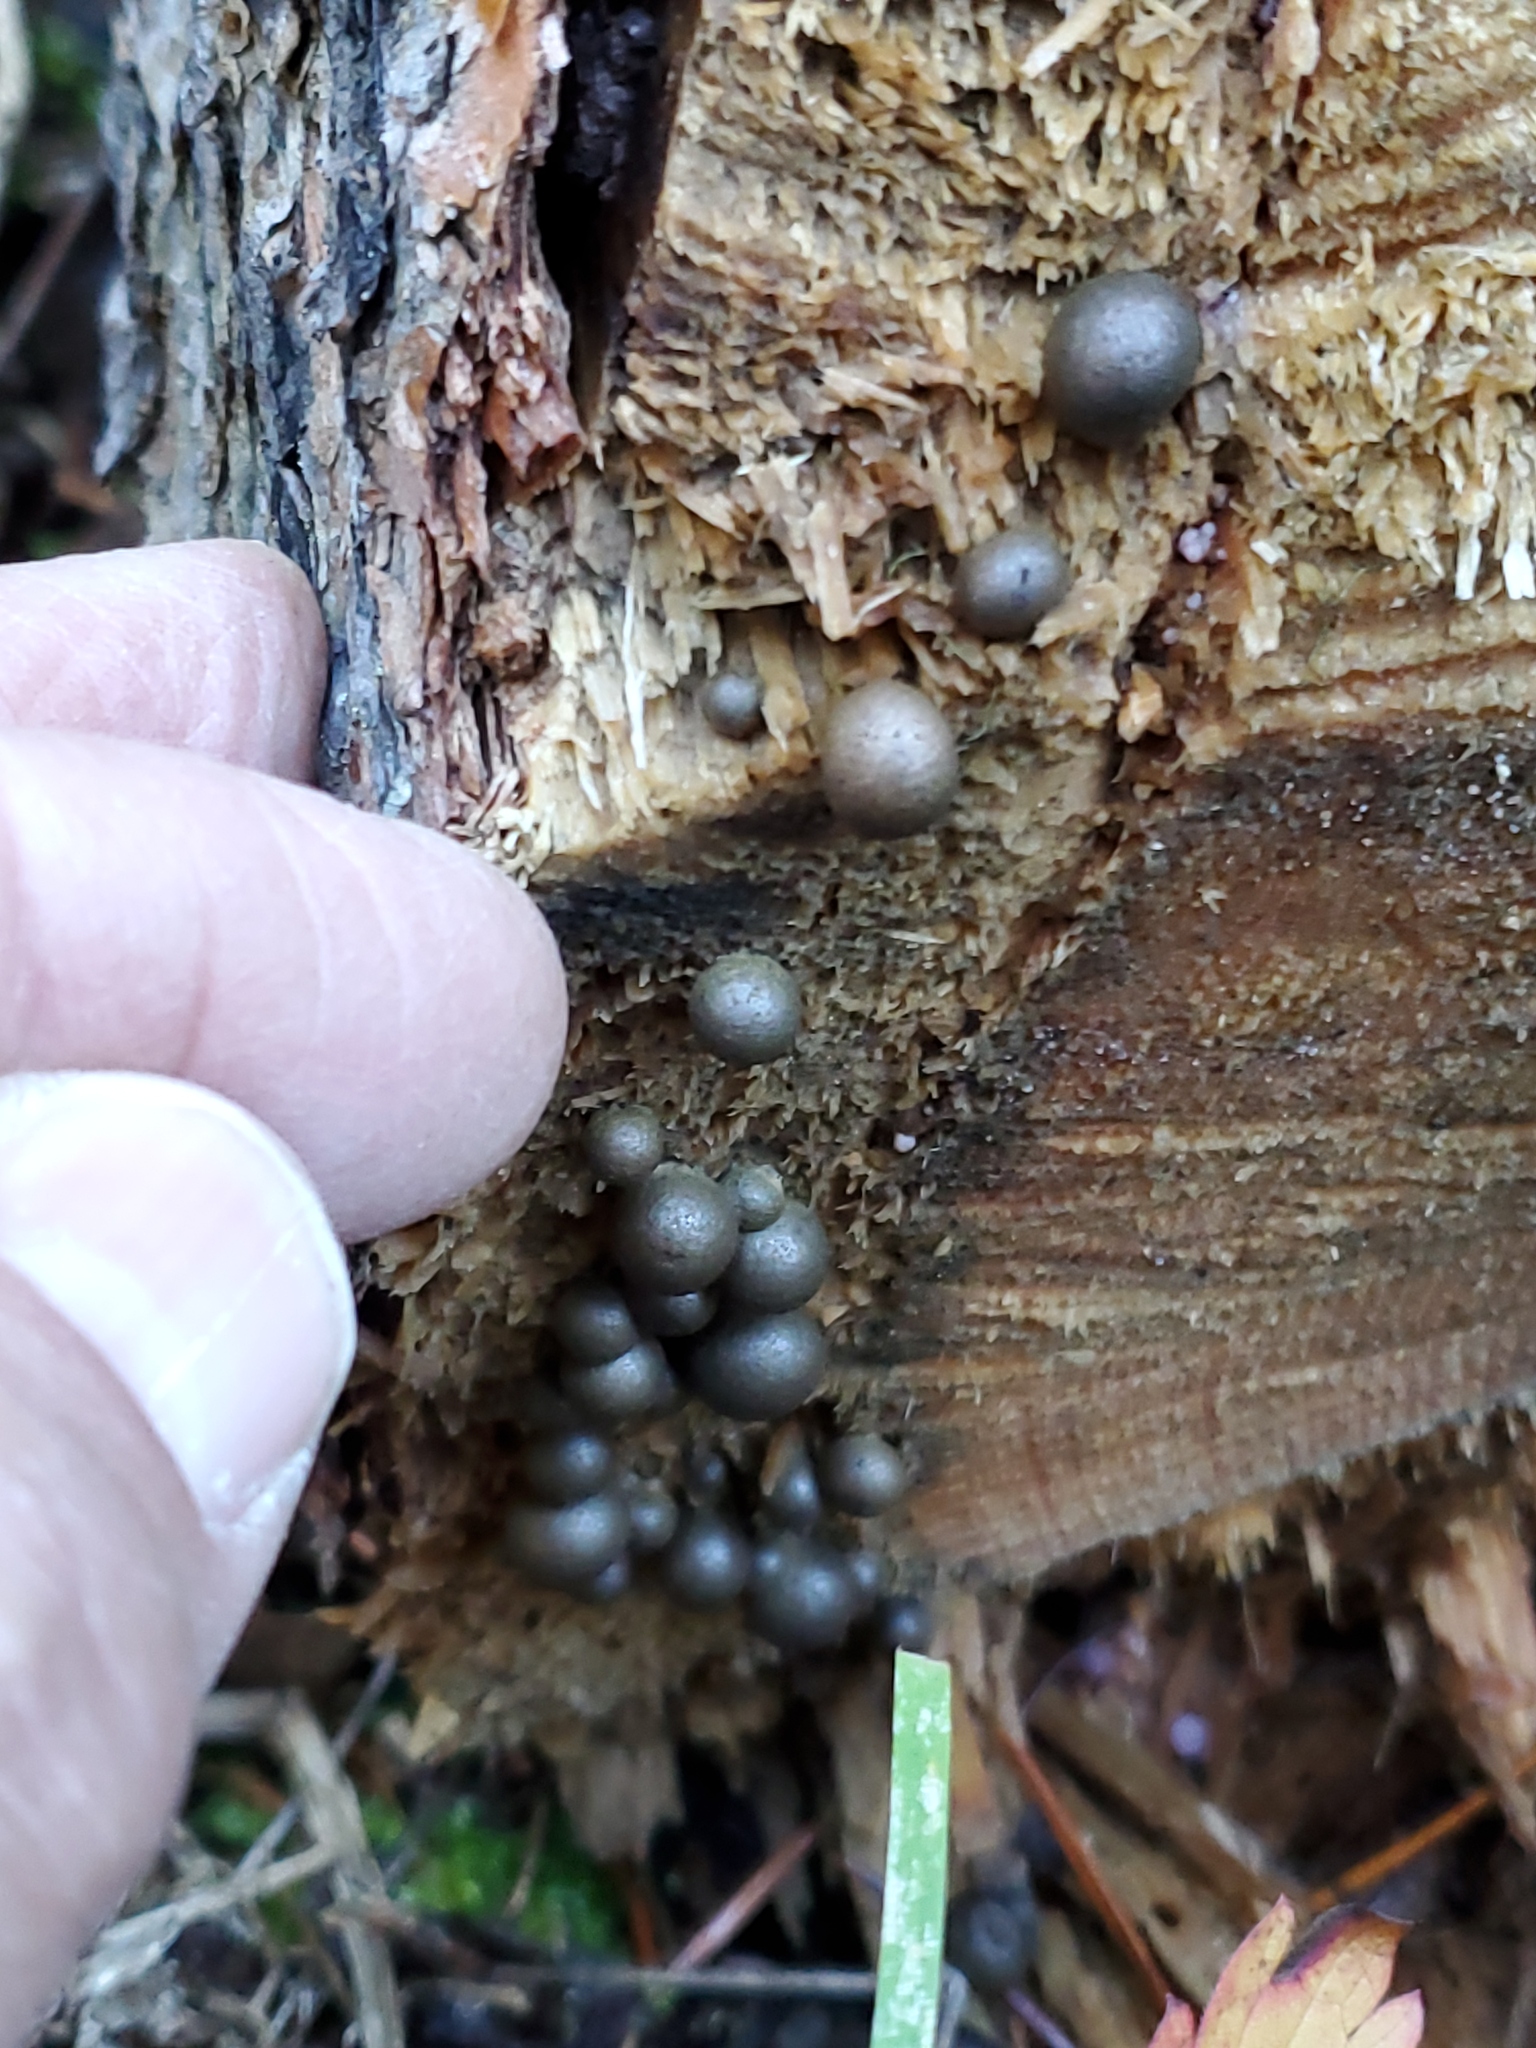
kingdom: Protozoa
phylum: Mycetozoa
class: Myxomycetes
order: Cribrariales
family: Tubiferaceae
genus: Lycogala
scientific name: Lycogala epidendrum
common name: Wolf's milk
